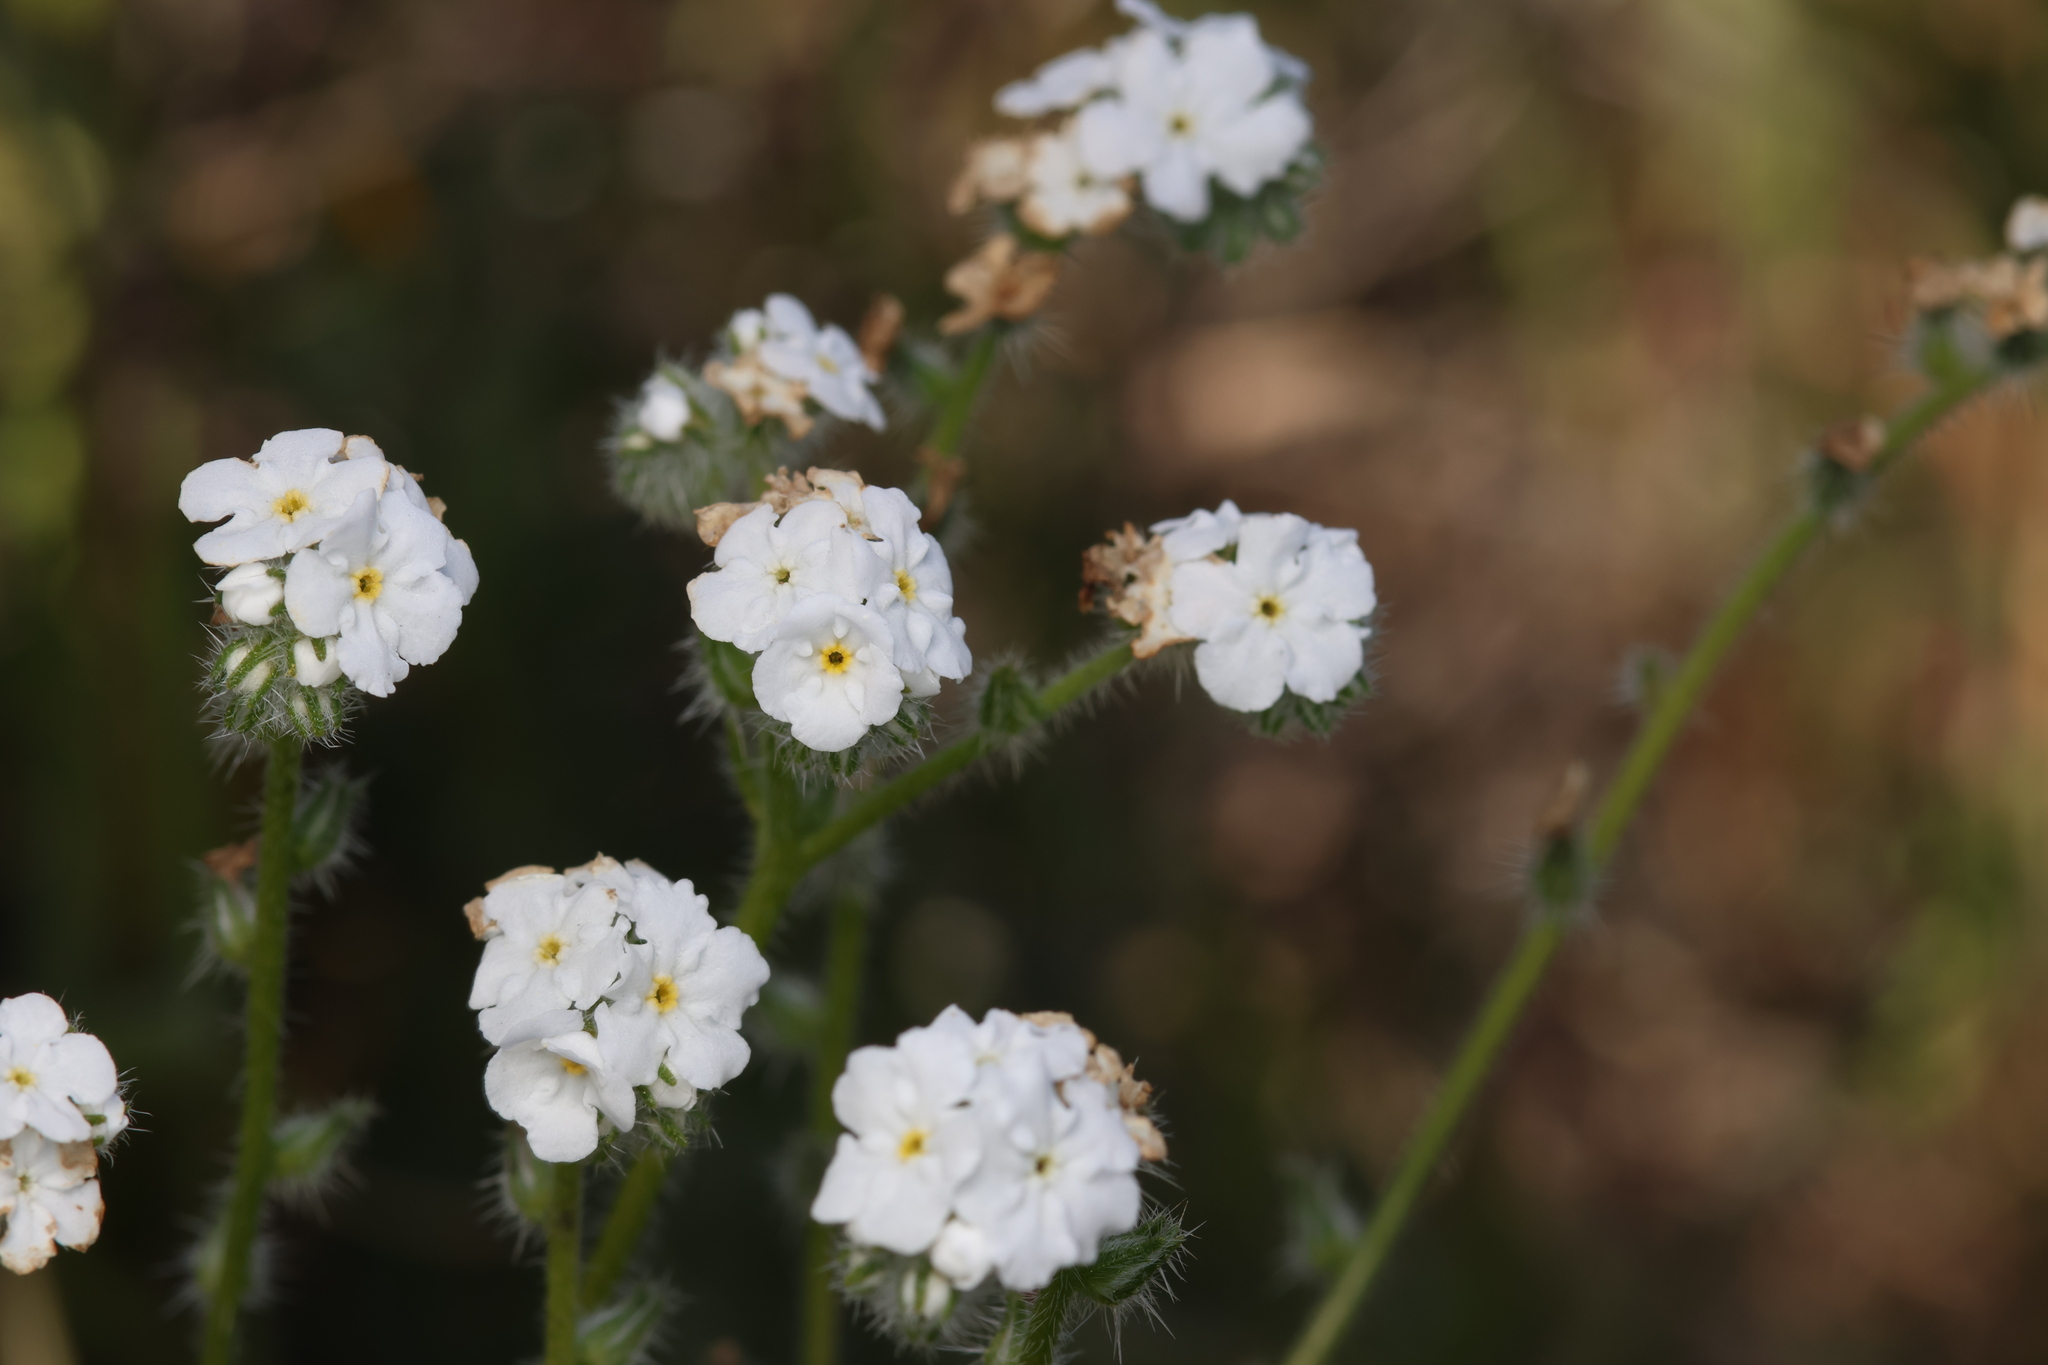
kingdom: Plantae
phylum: Tracheophyta
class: Magnoliopsida
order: Boraginales
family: Boraginaceae
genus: Cryptantha
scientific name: Cryptantha intermedia
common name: Clearwater cryptantha
